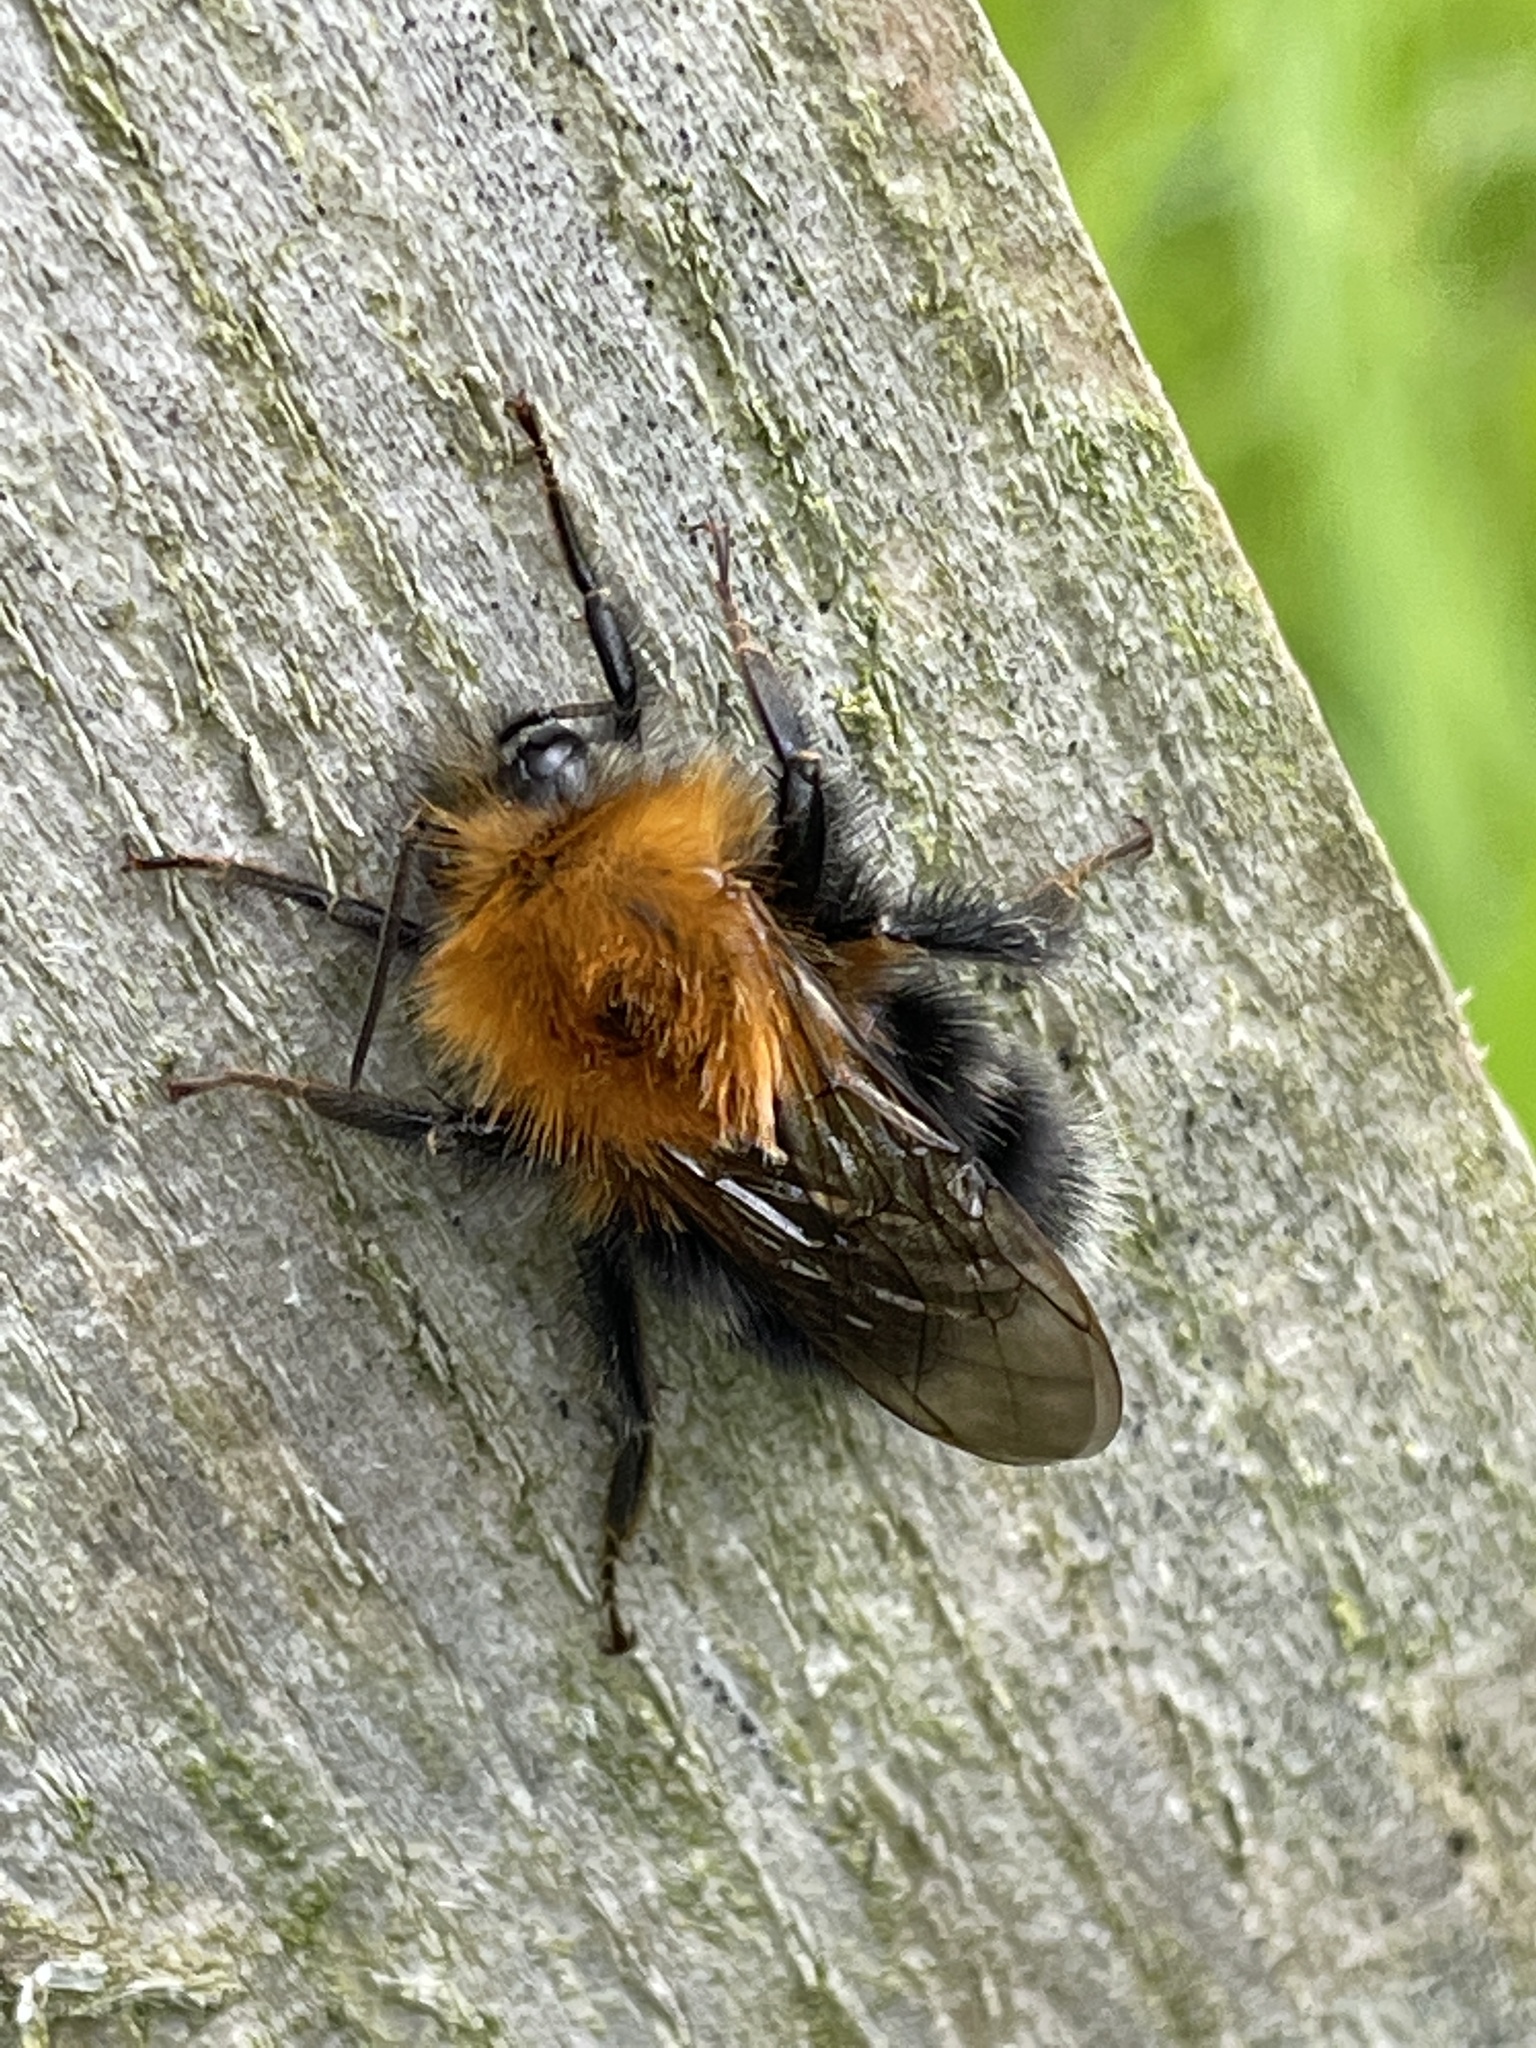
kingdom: Animalia
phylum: Arthropoda
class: Insecta
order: Hymenoptera
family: Apidae
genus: Bombus
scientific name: Bombus hypnorum
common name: New garden bumblebee
